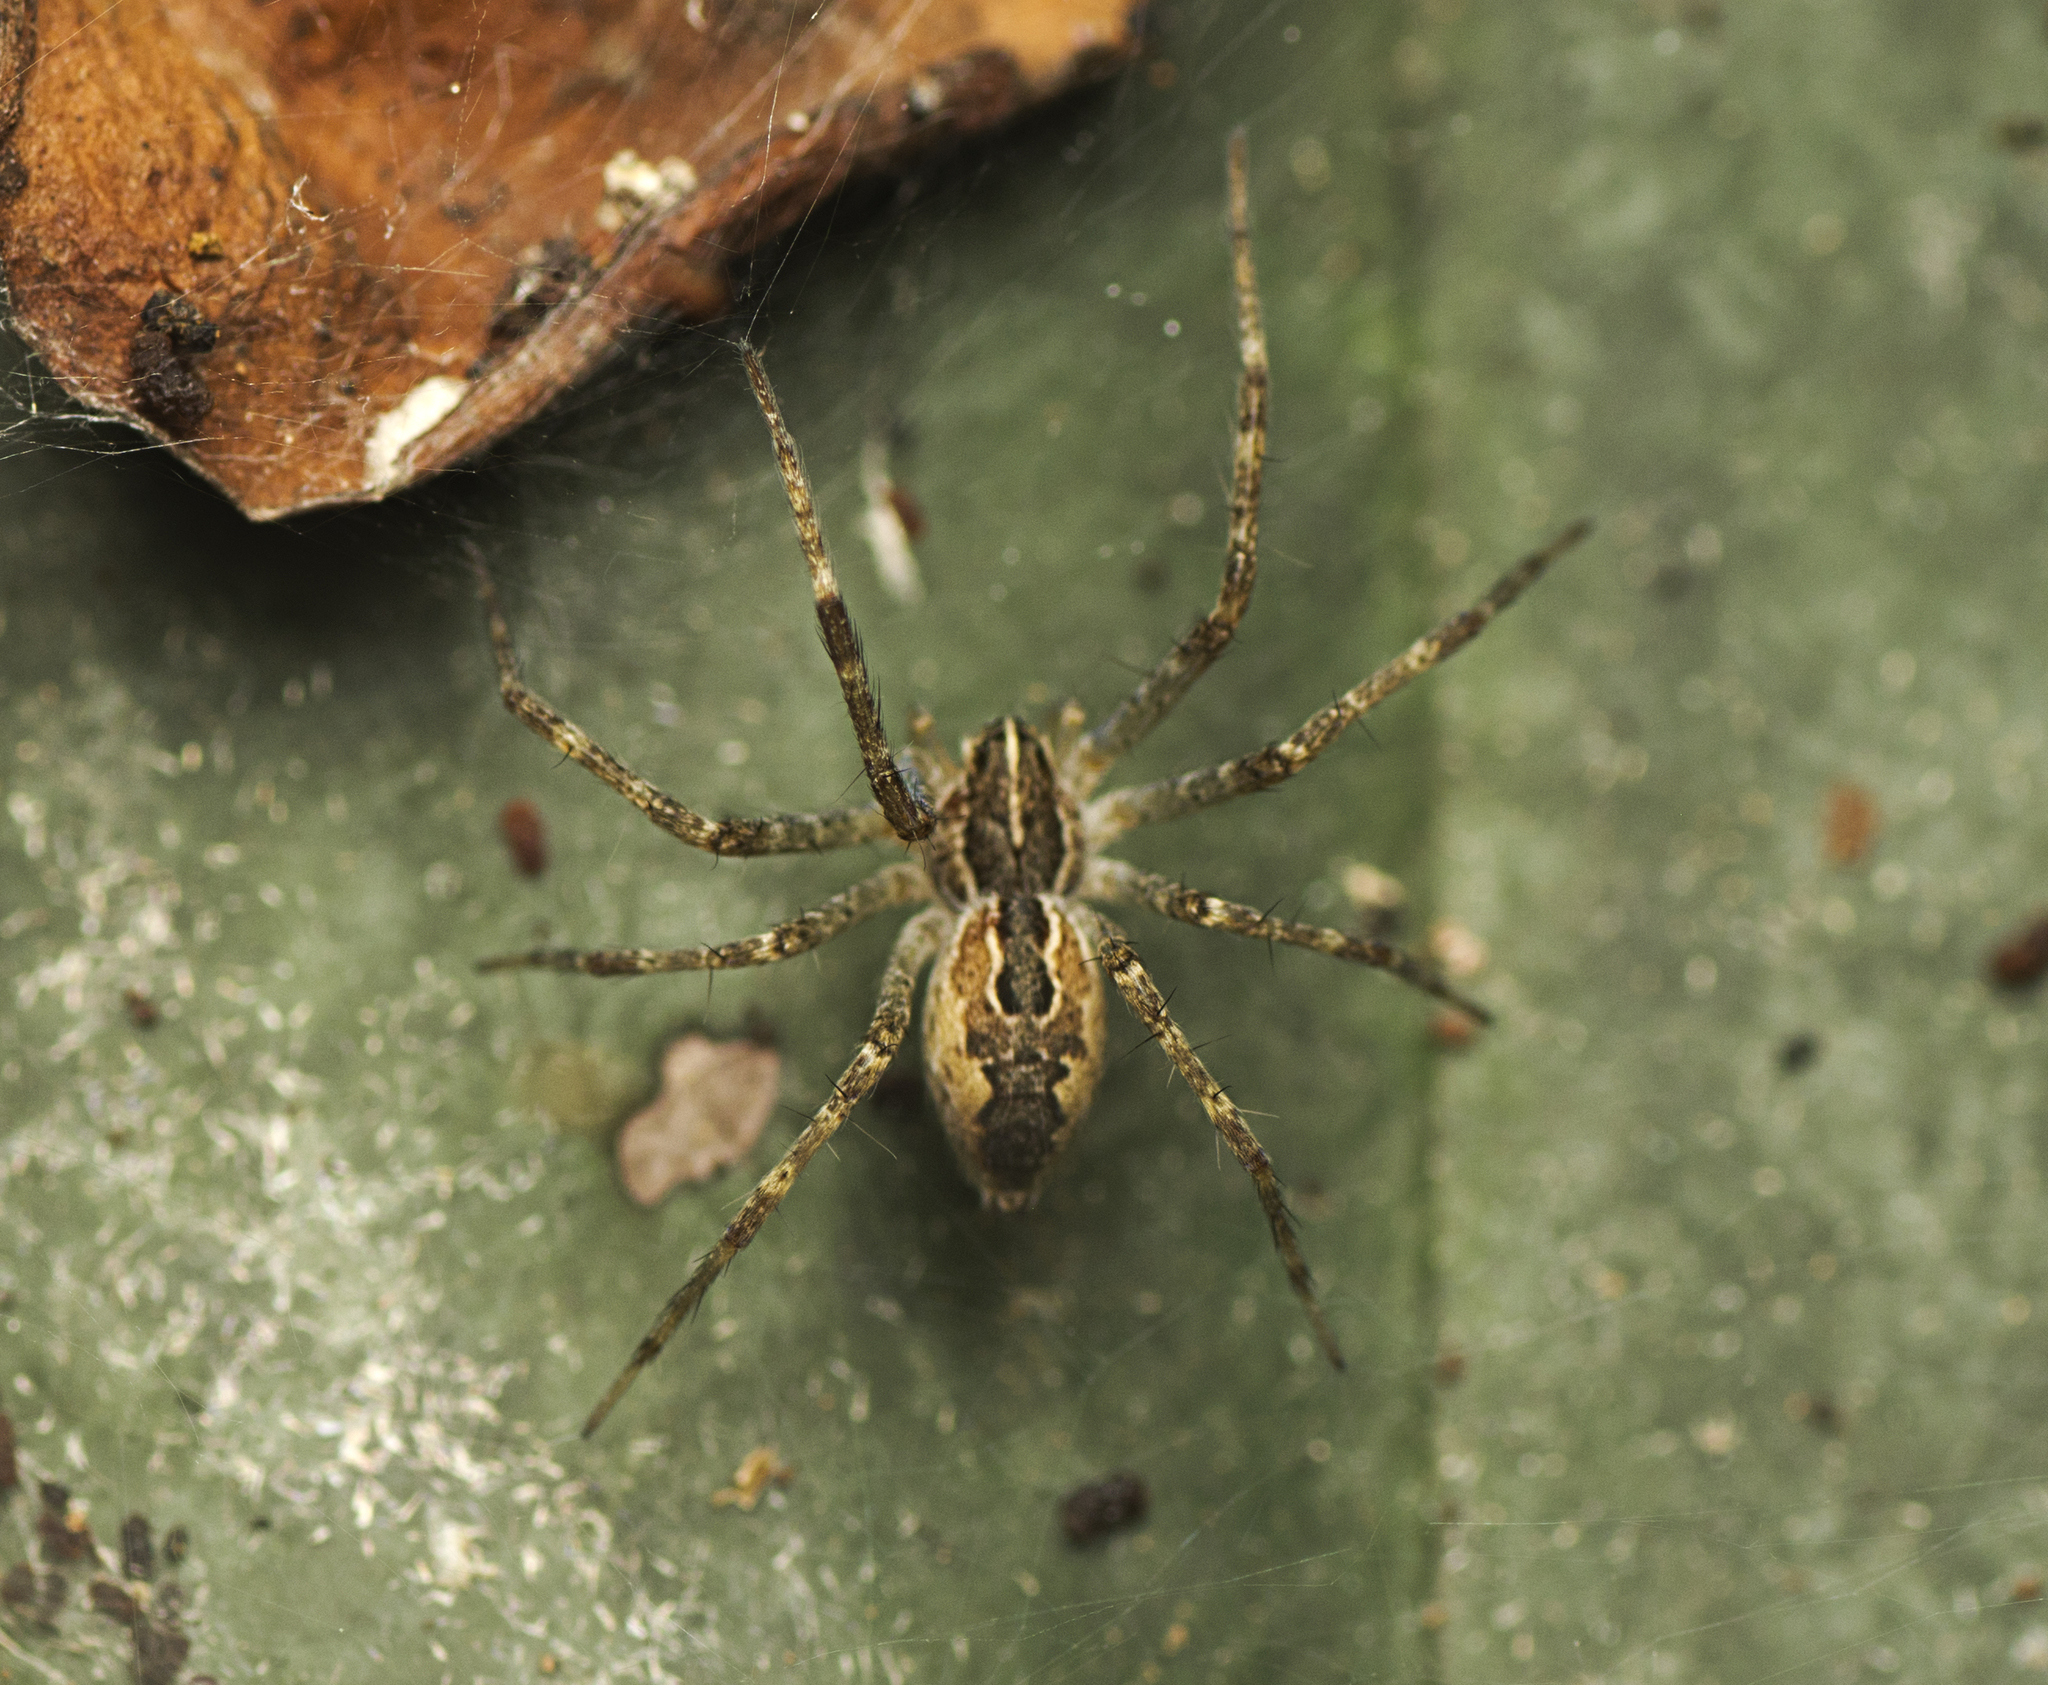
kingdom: Animalia
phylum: Arthropoda
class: Arachnida
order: Araneae
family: Pisauridae
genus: Dendrolycosa
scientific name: Dendrolycosa icadia
